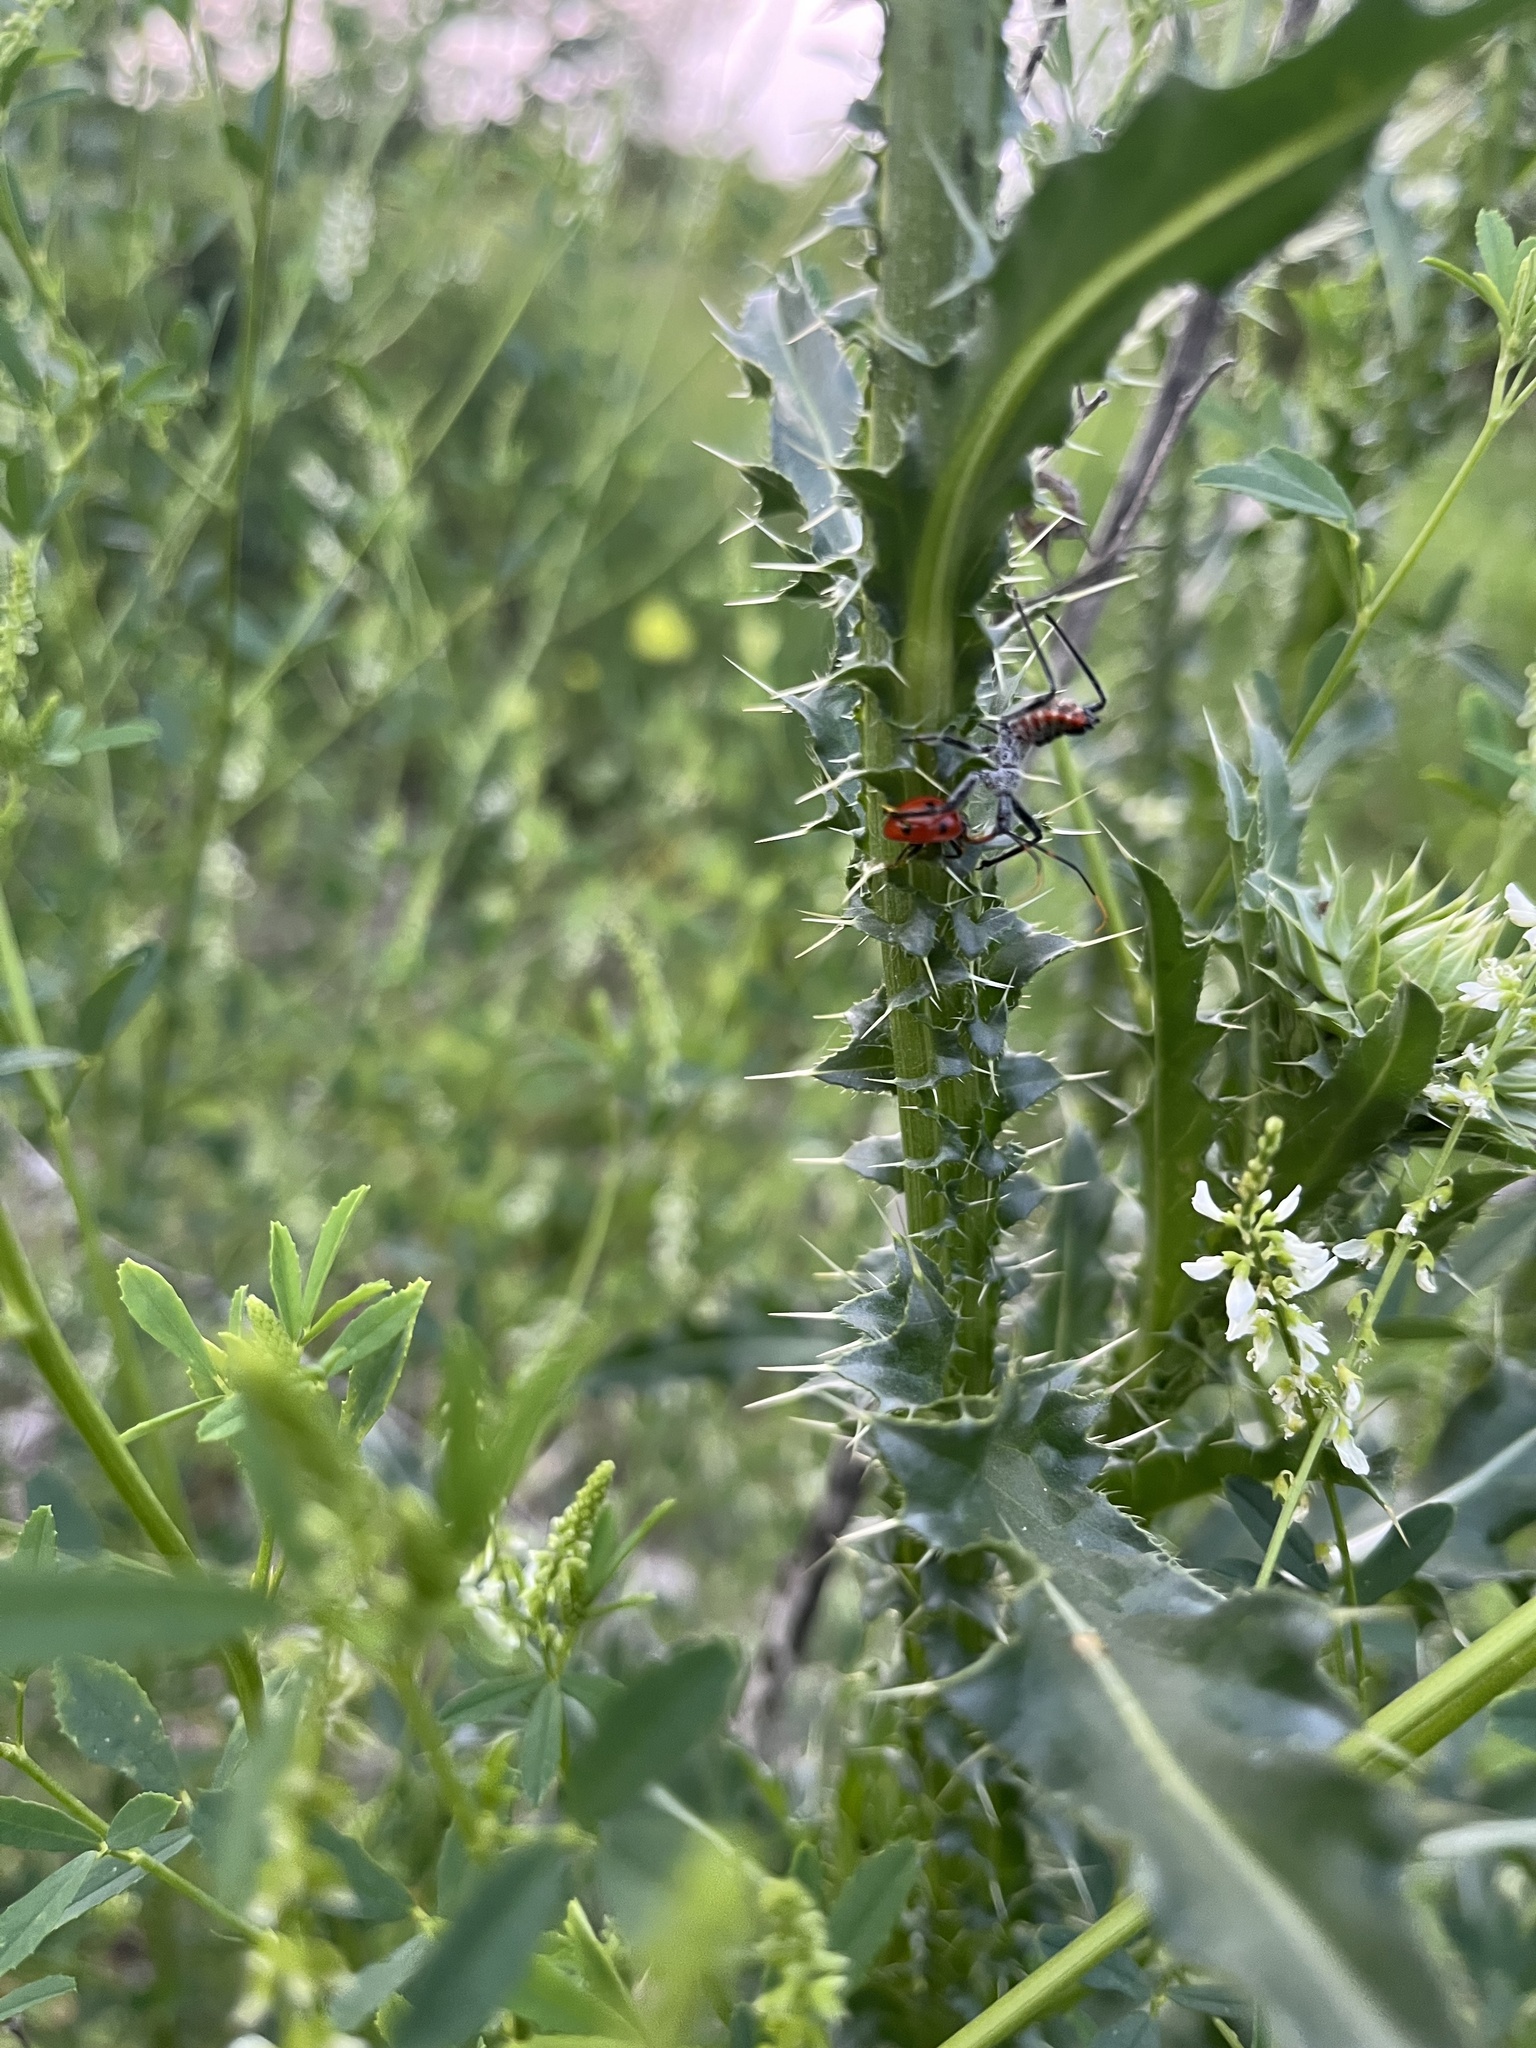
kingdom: Animalia
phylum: Arthropoda
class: Insecta
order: Hemiptera
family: Reduviidae
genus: Arilus
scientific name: Arilus cristatus
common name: North american wheel bug
